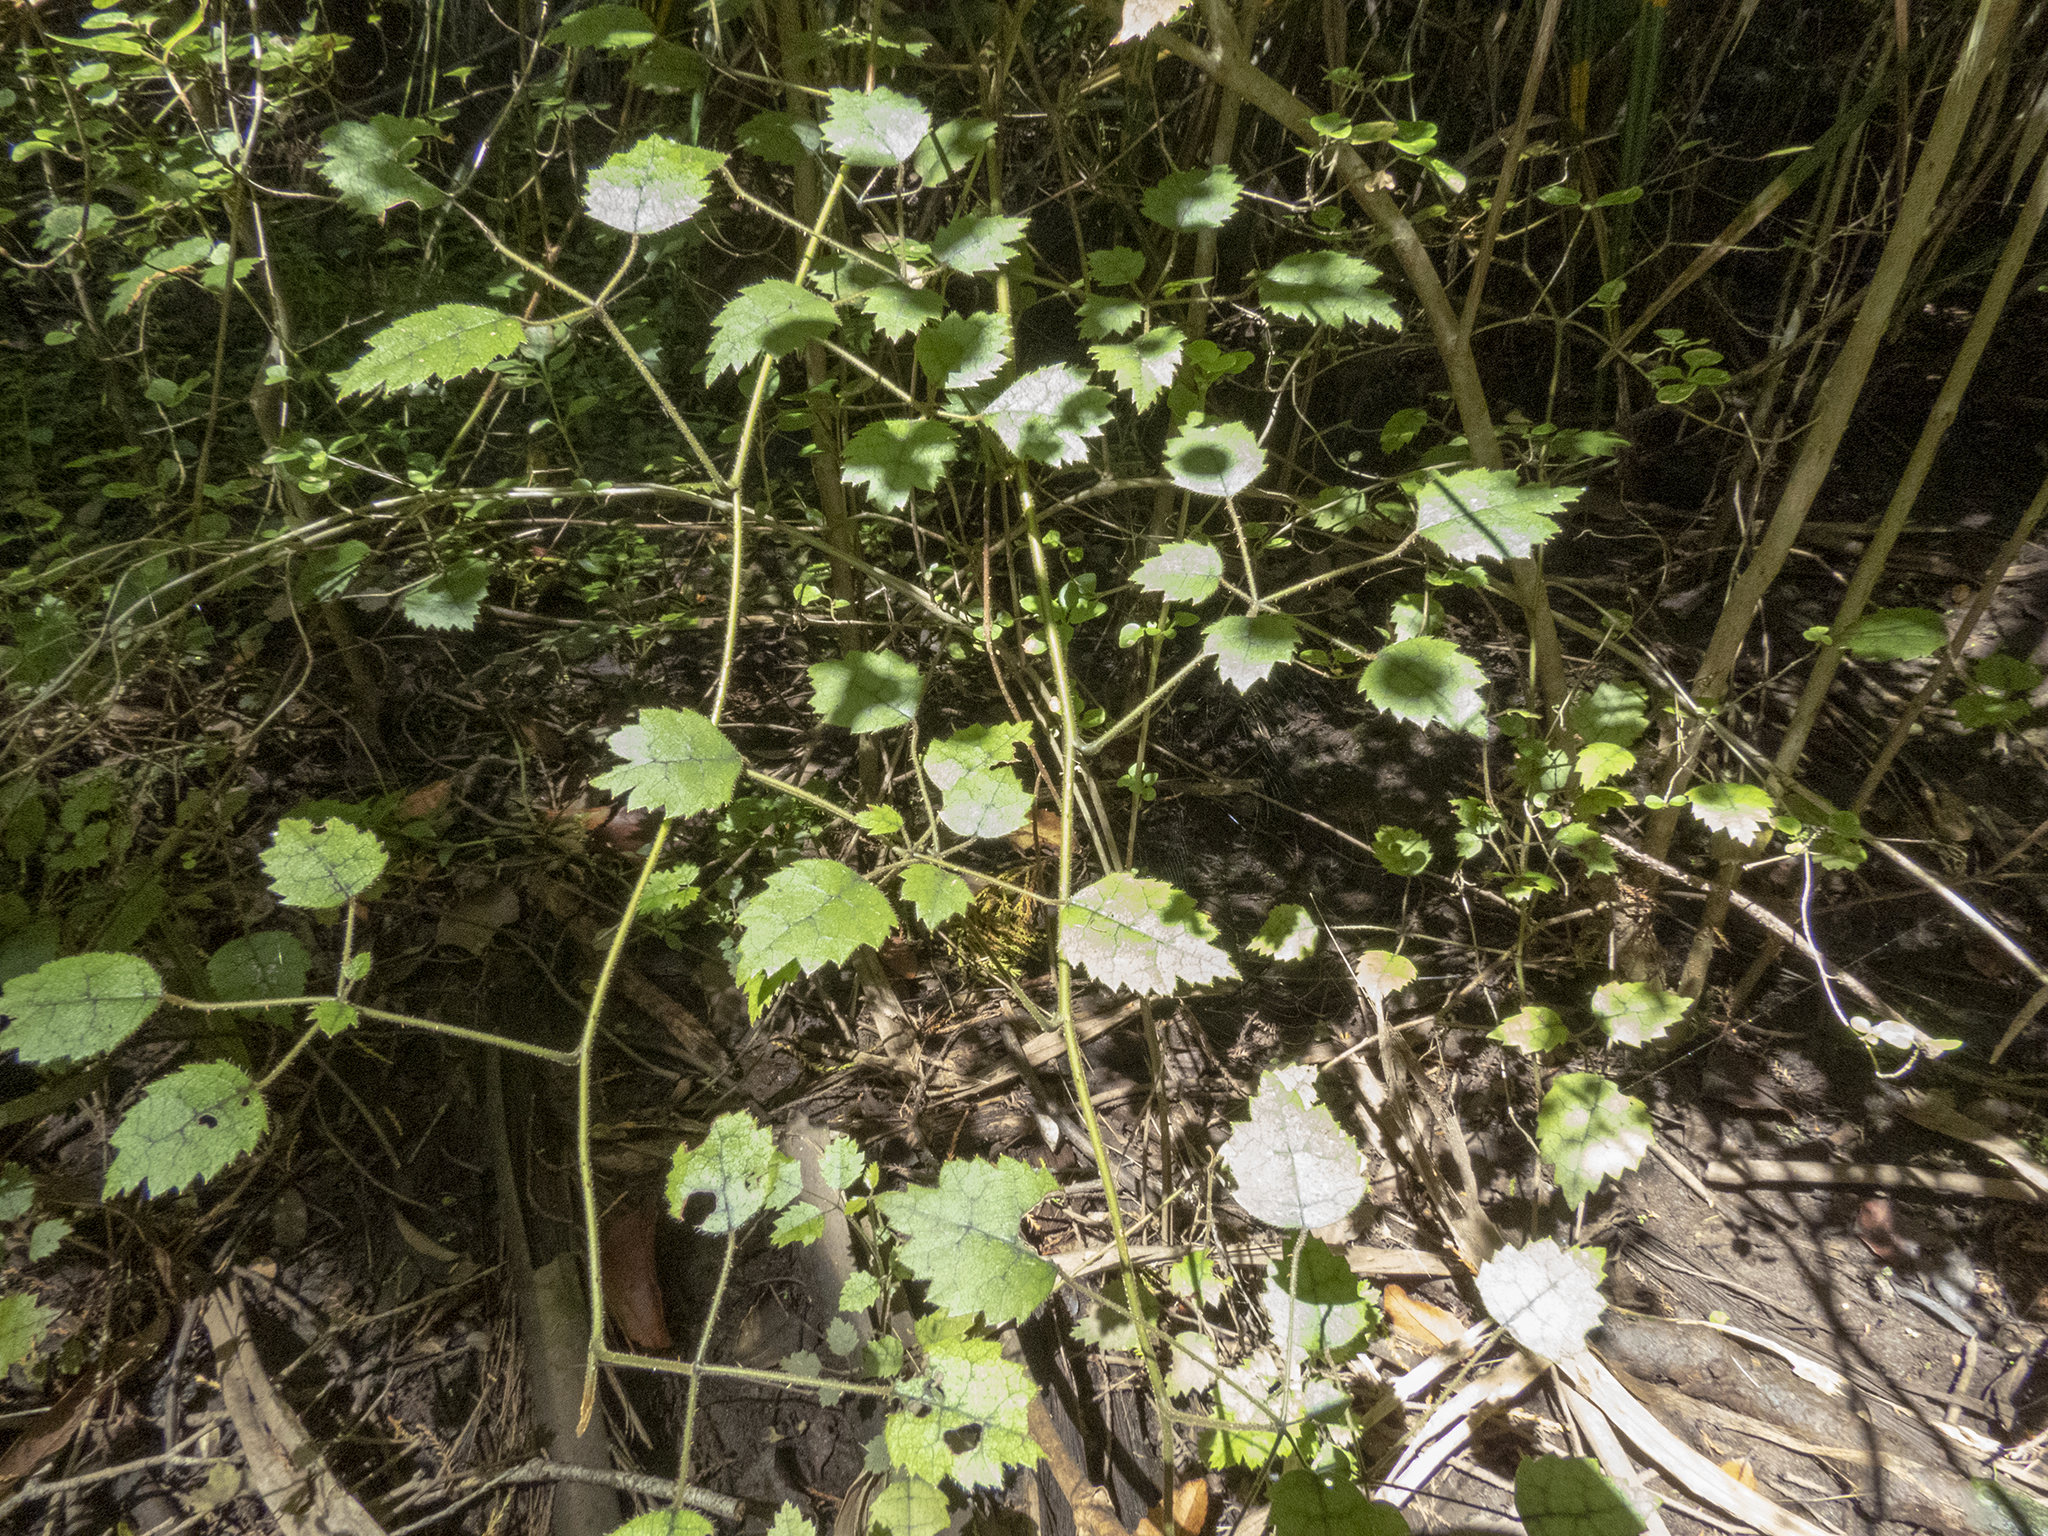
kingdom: Plantae
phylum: Tracheophyta
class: Magnoliopsida
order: Rosales
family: Rosaceae
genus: Rubus
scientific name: Rubus australis
